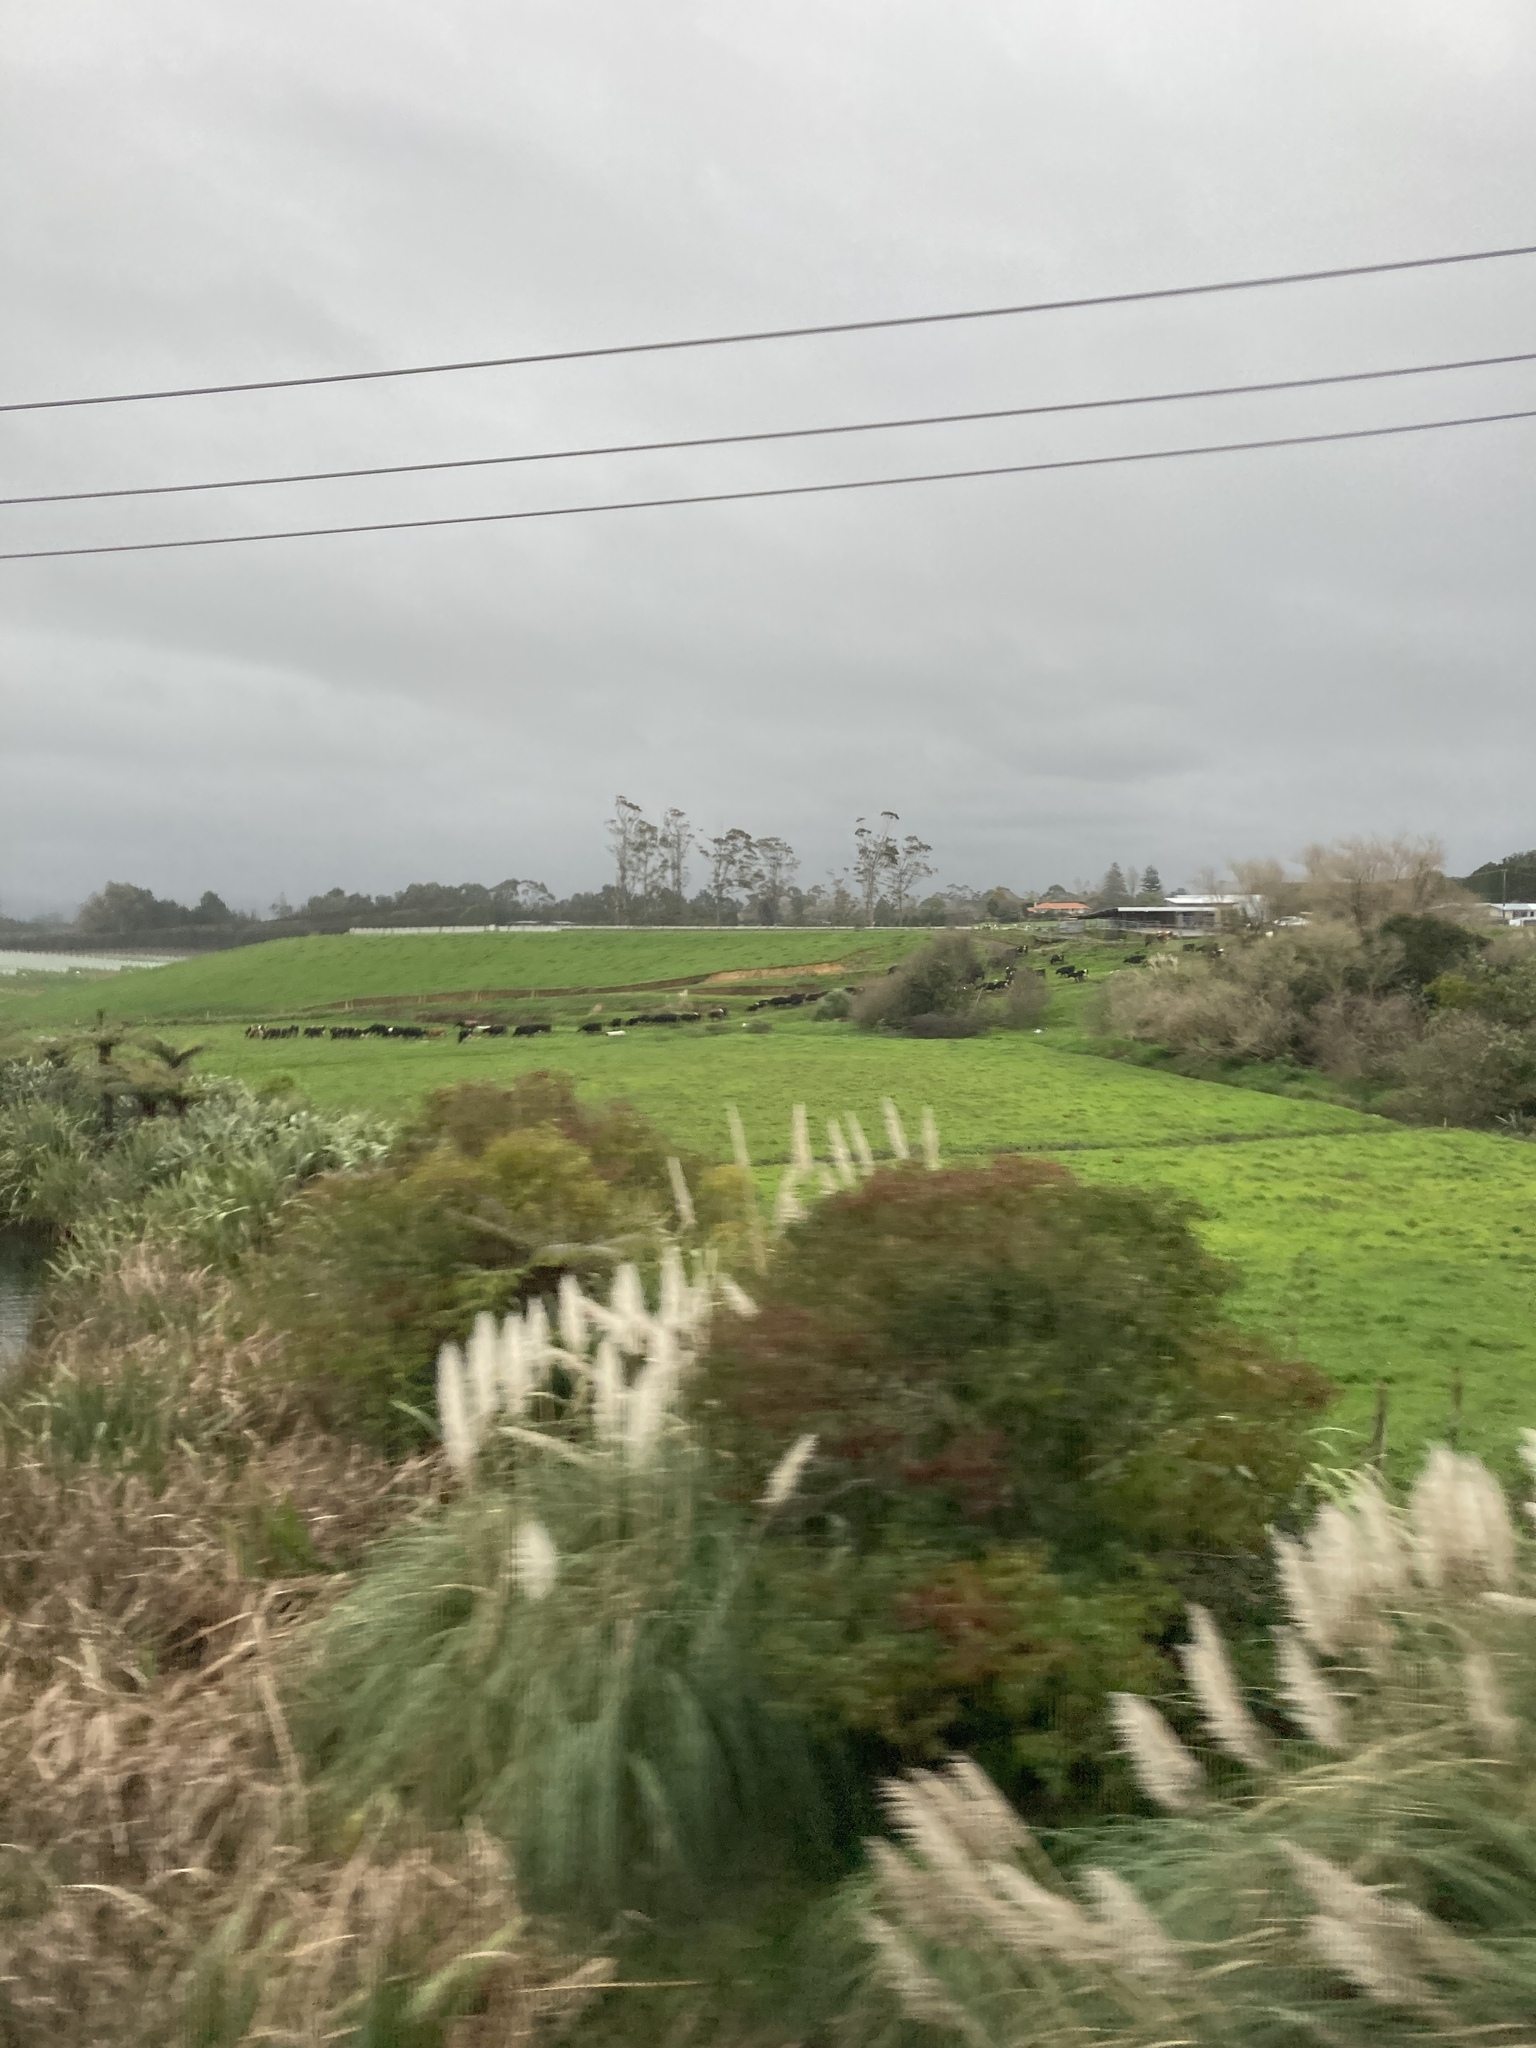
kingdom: Plantae
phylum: Tracheophyta
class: Liliopsida
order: Poales
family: Poaceae
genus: Cortaderia
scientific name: Cortaderia selloana
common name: Uruguayan pampas grass
